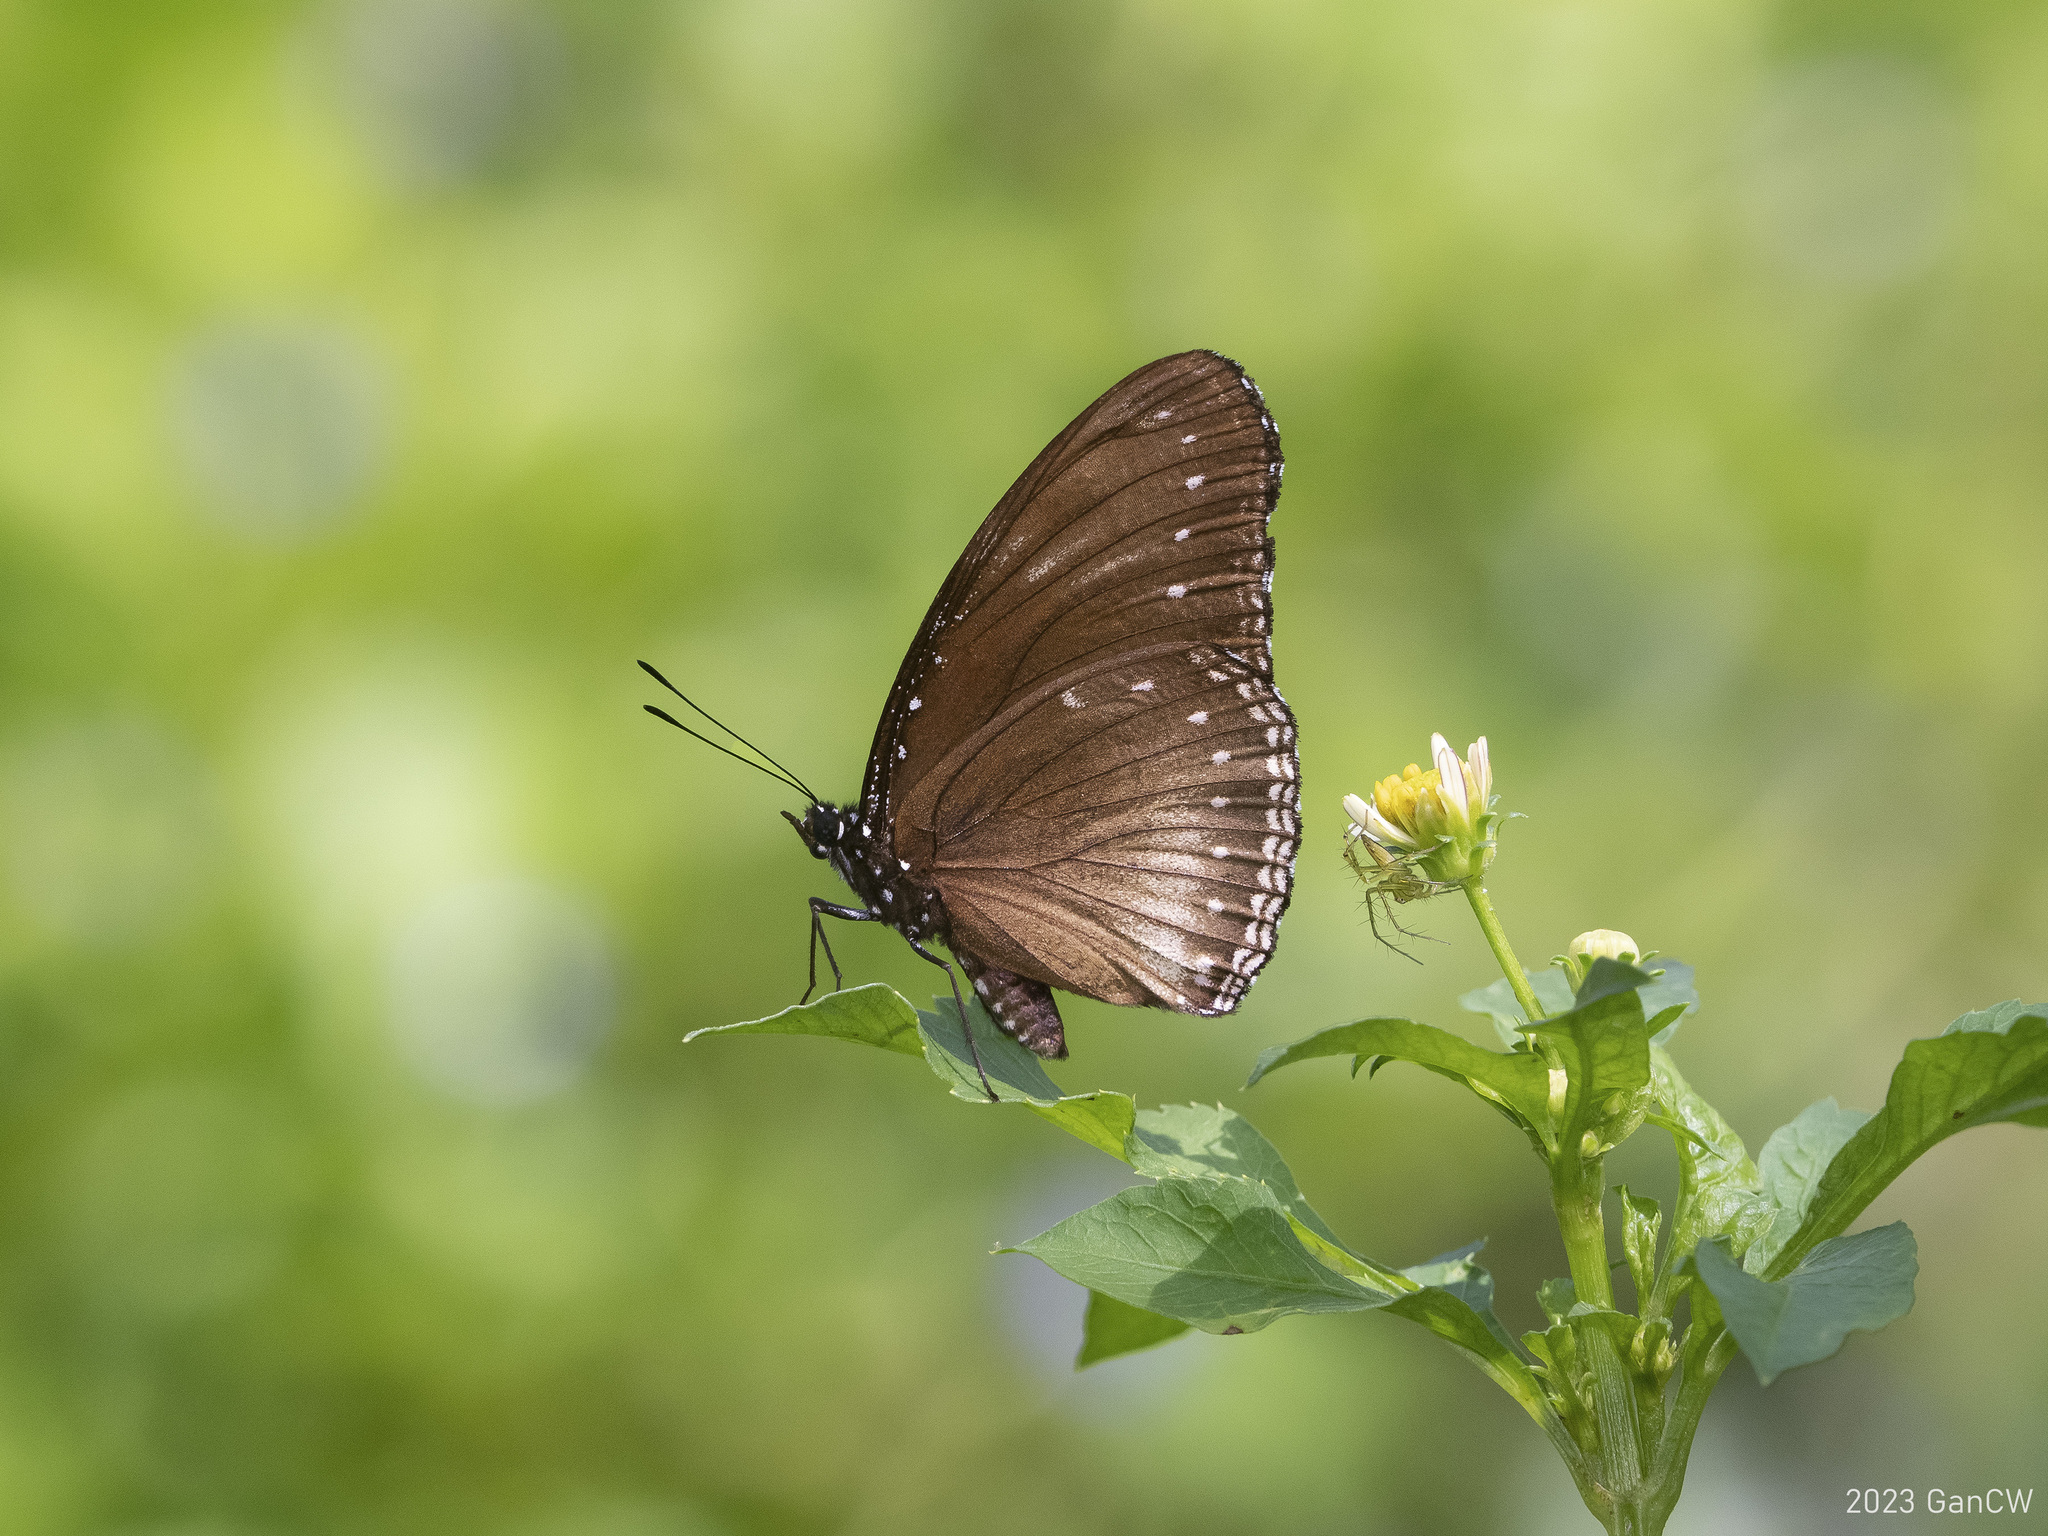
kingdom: Animalia
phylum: Arthropoda
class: Insecta
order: Lepidoptera
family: Nymphalidae
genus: Hypolimnas
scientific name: Hypolimnas anomala
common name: Malayan eggfly
